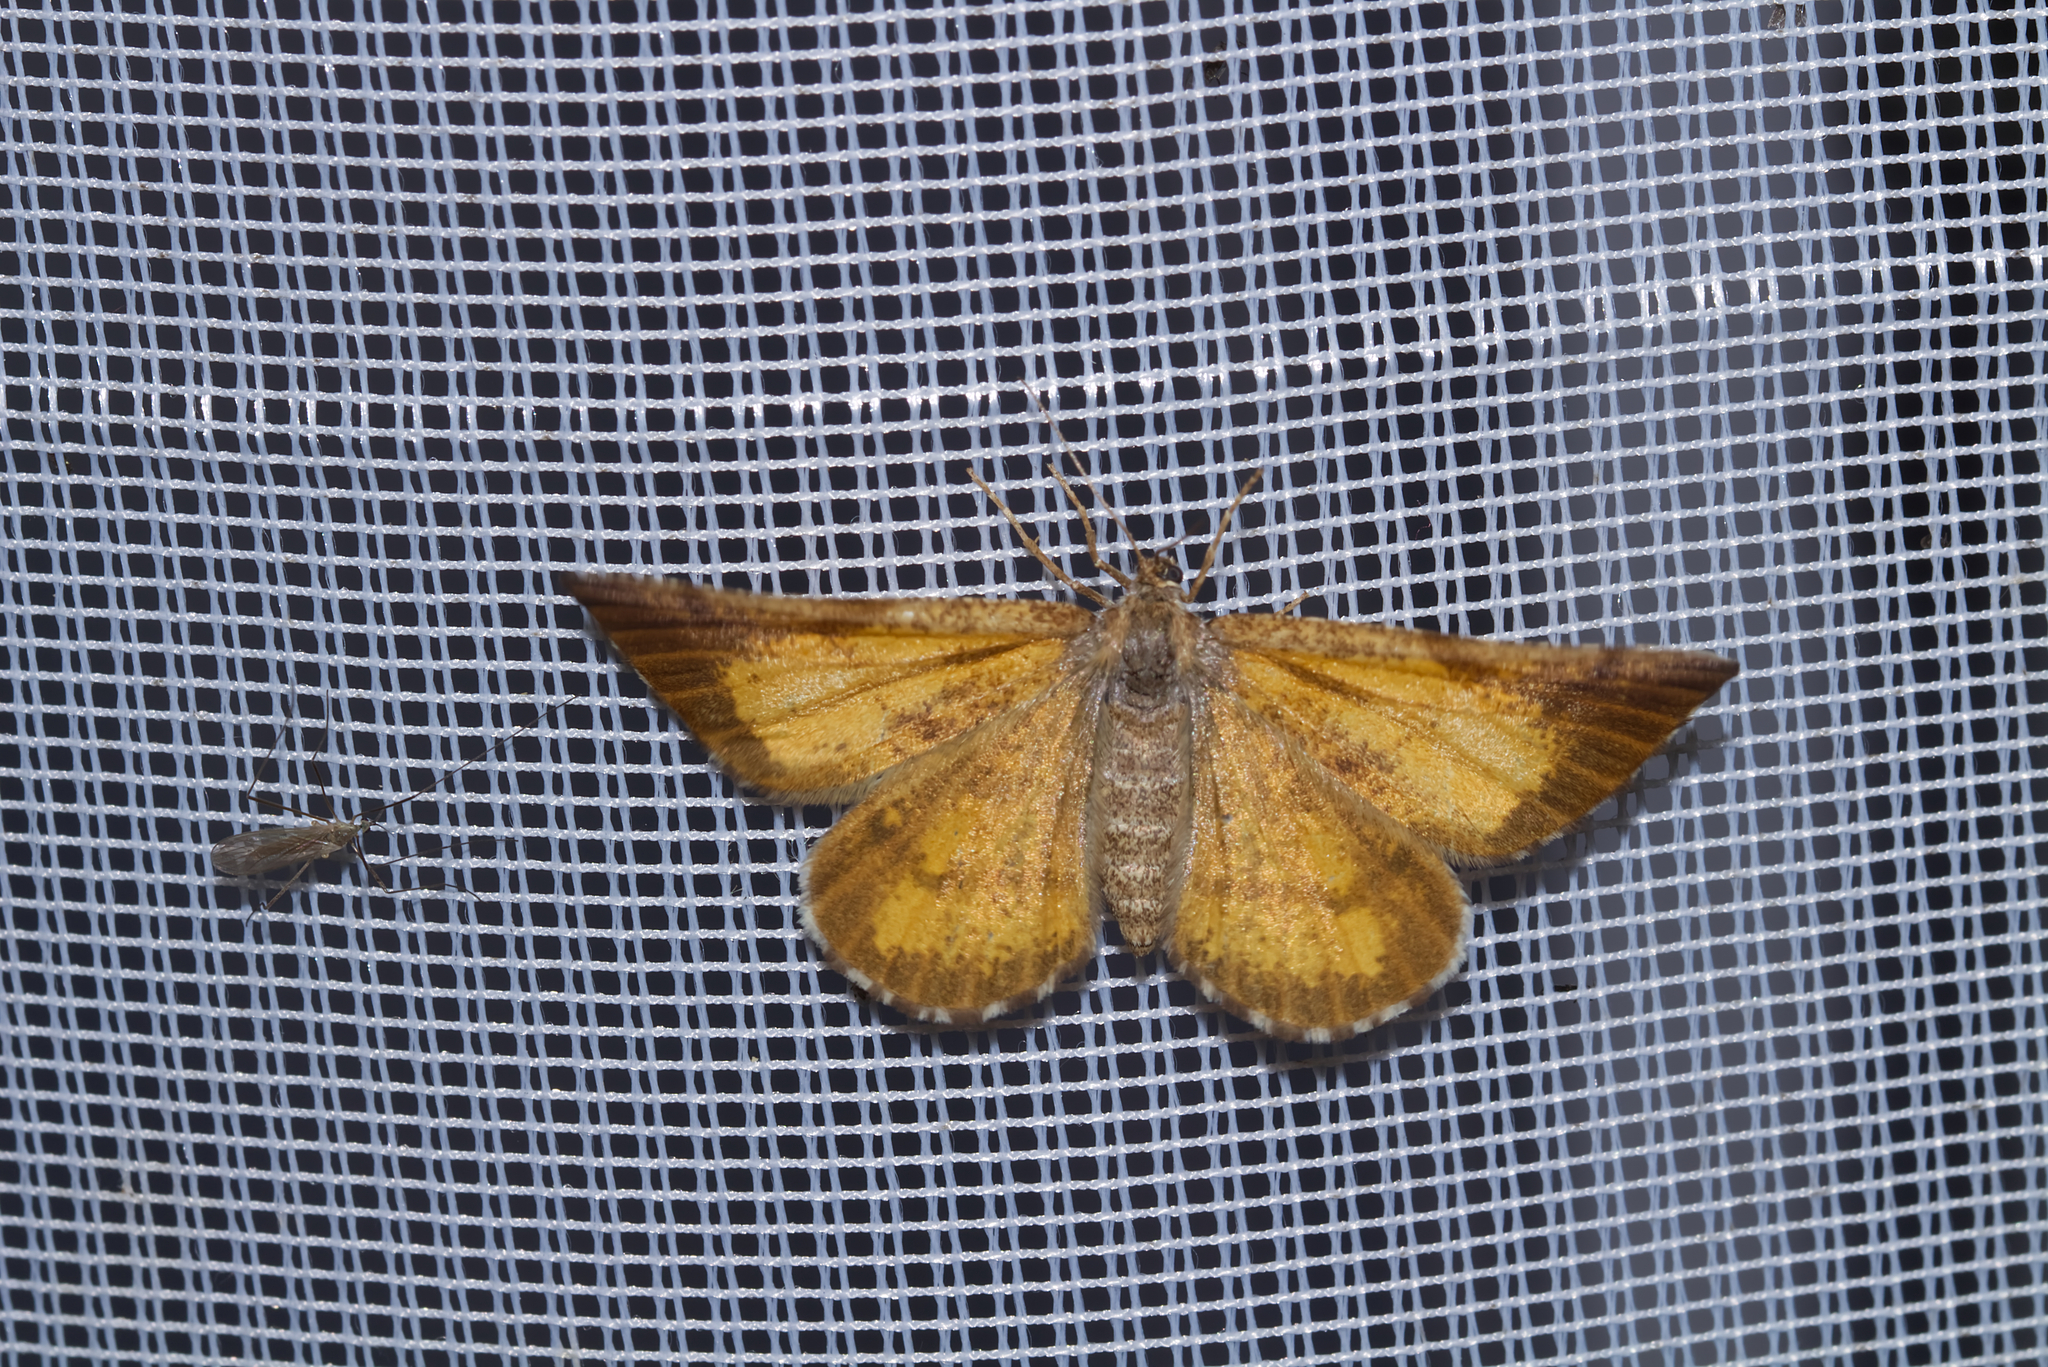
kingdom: Animalia
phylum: Arthropoda
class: Insecta
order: Lepidoptera
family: Geometridae
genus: Bupalus
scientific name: Bupalus piniaria
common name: Bordered white
